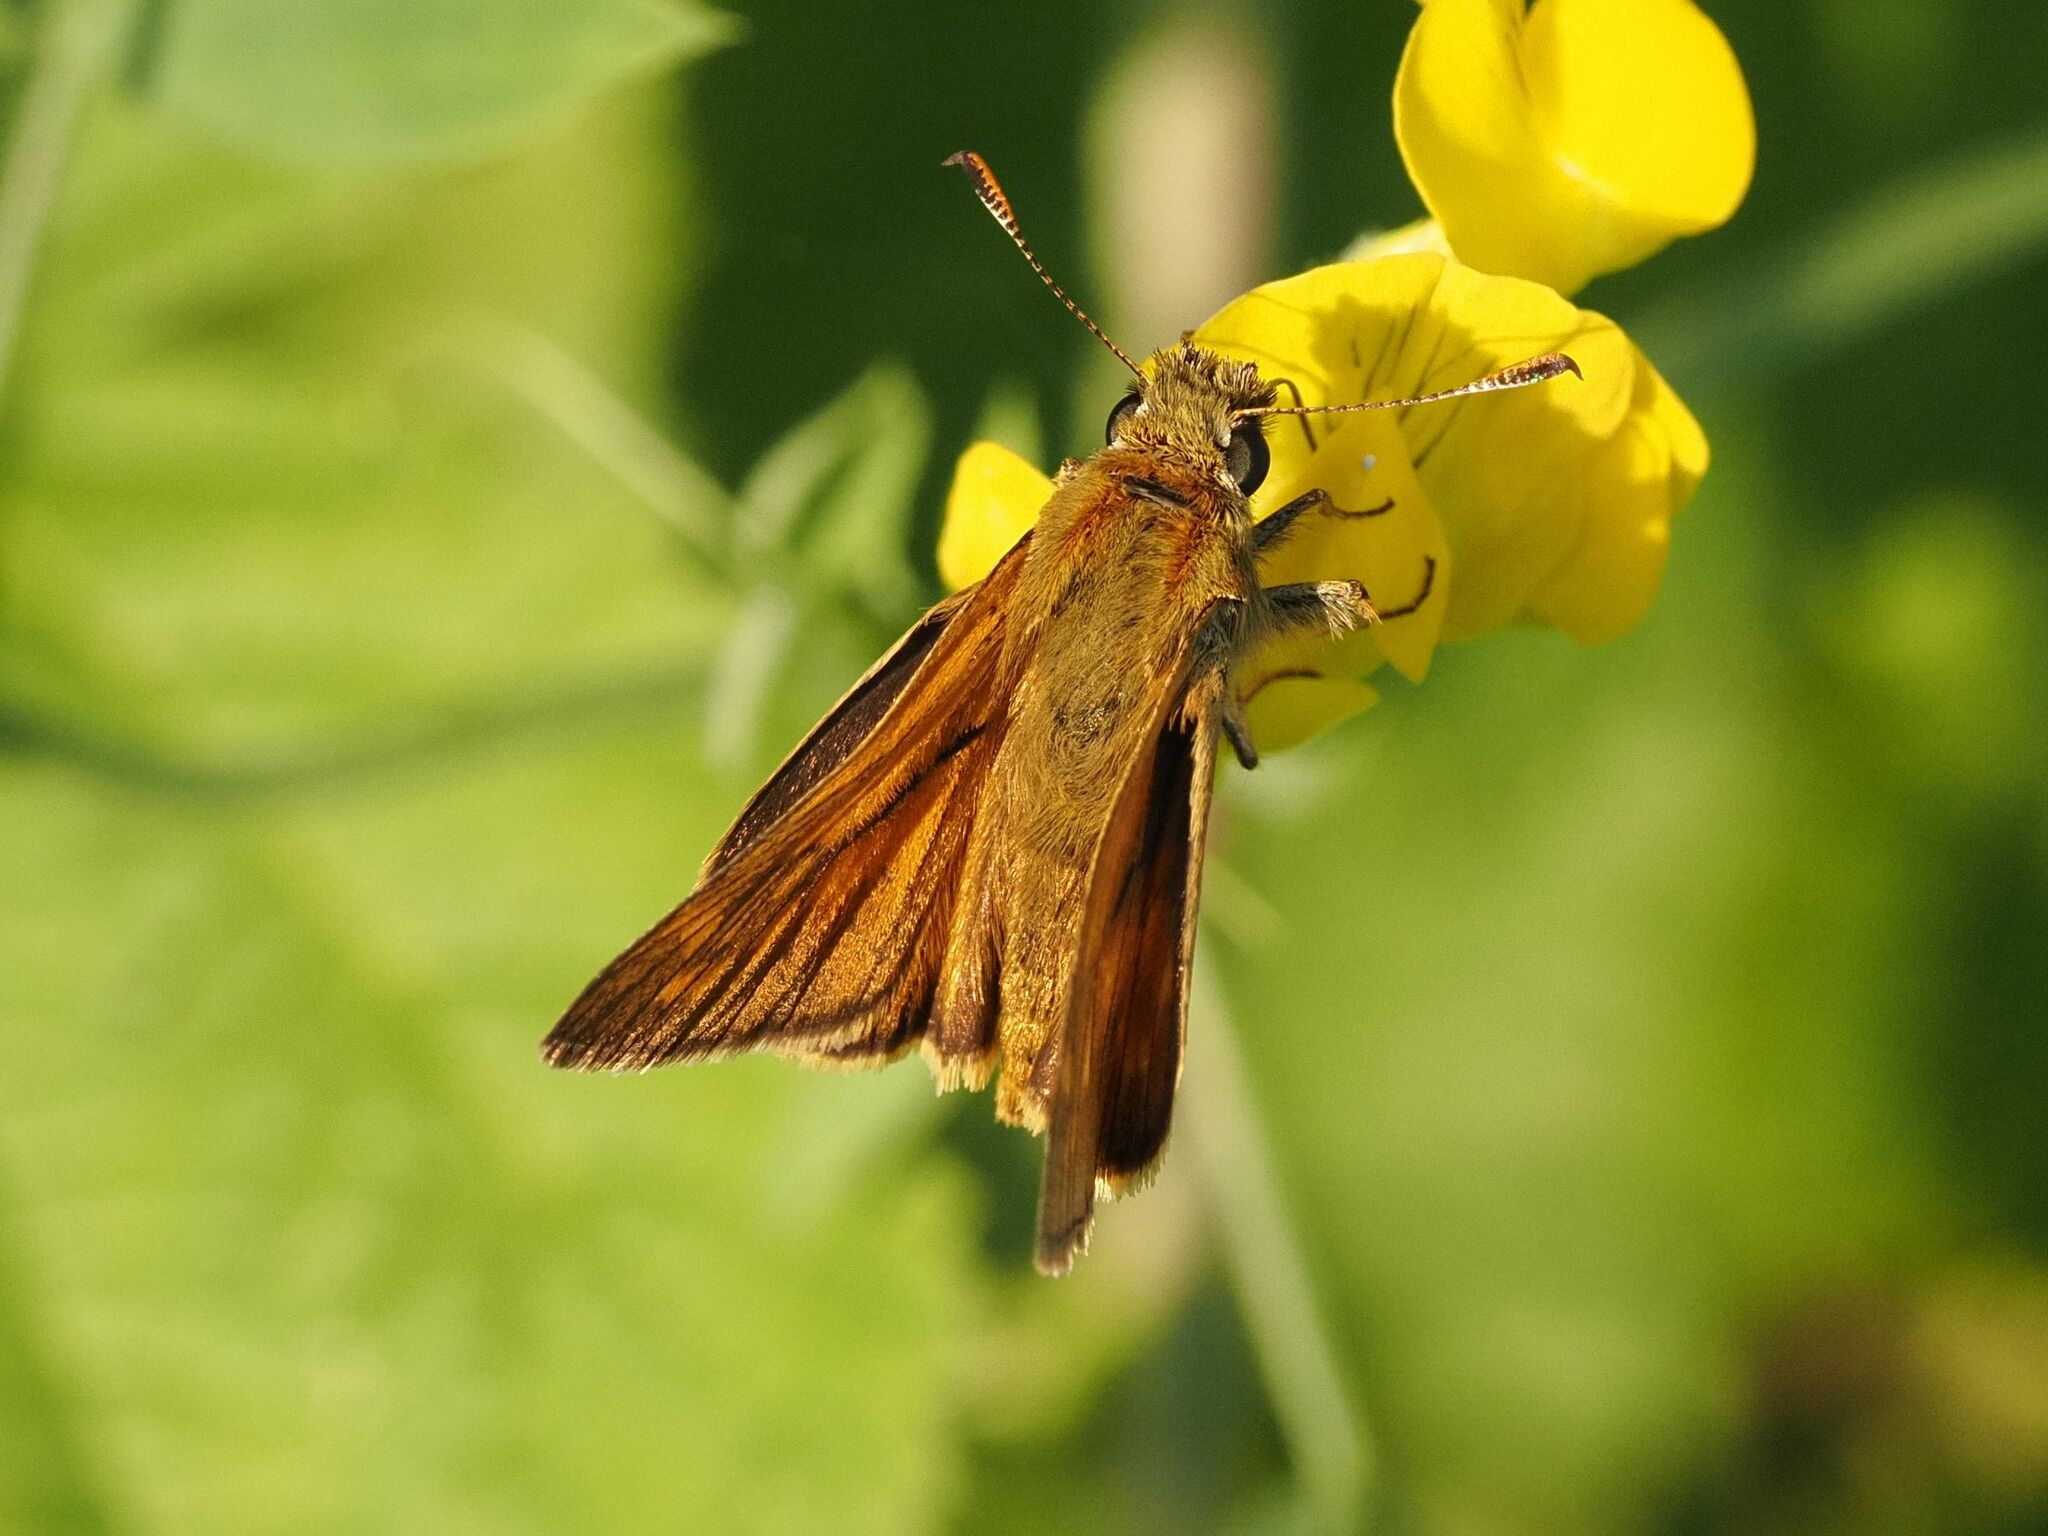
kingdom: Animalia
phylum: Arthropoda
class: Insecta
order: Lepidoptera
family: Hesperiidae
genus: Ochlodes
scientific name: Ochlodes venata
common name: Large skipper
